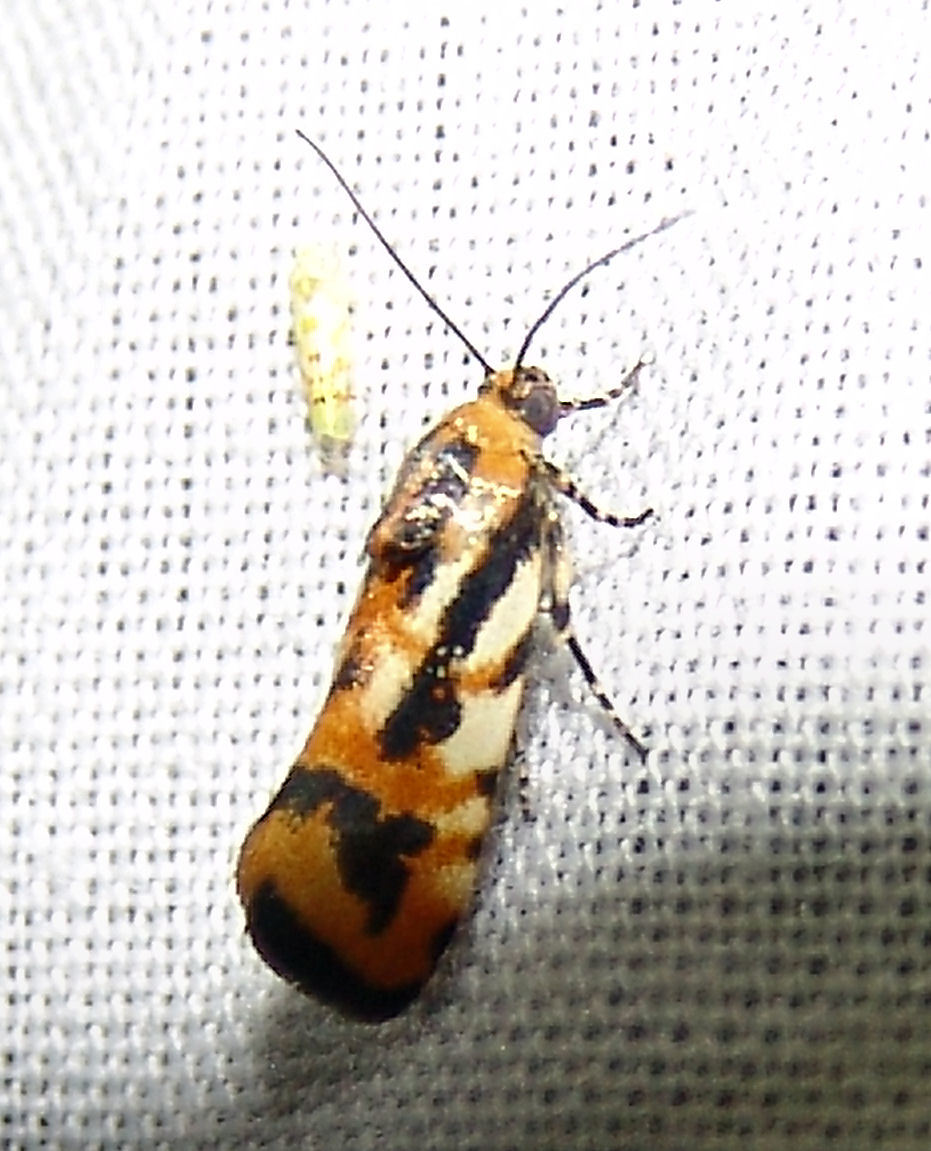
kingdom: Animalia
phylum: Arthropoda
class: Insecta
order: Lepidoptera
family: Noctuidae
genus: Acontia
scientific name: Acontia leo
